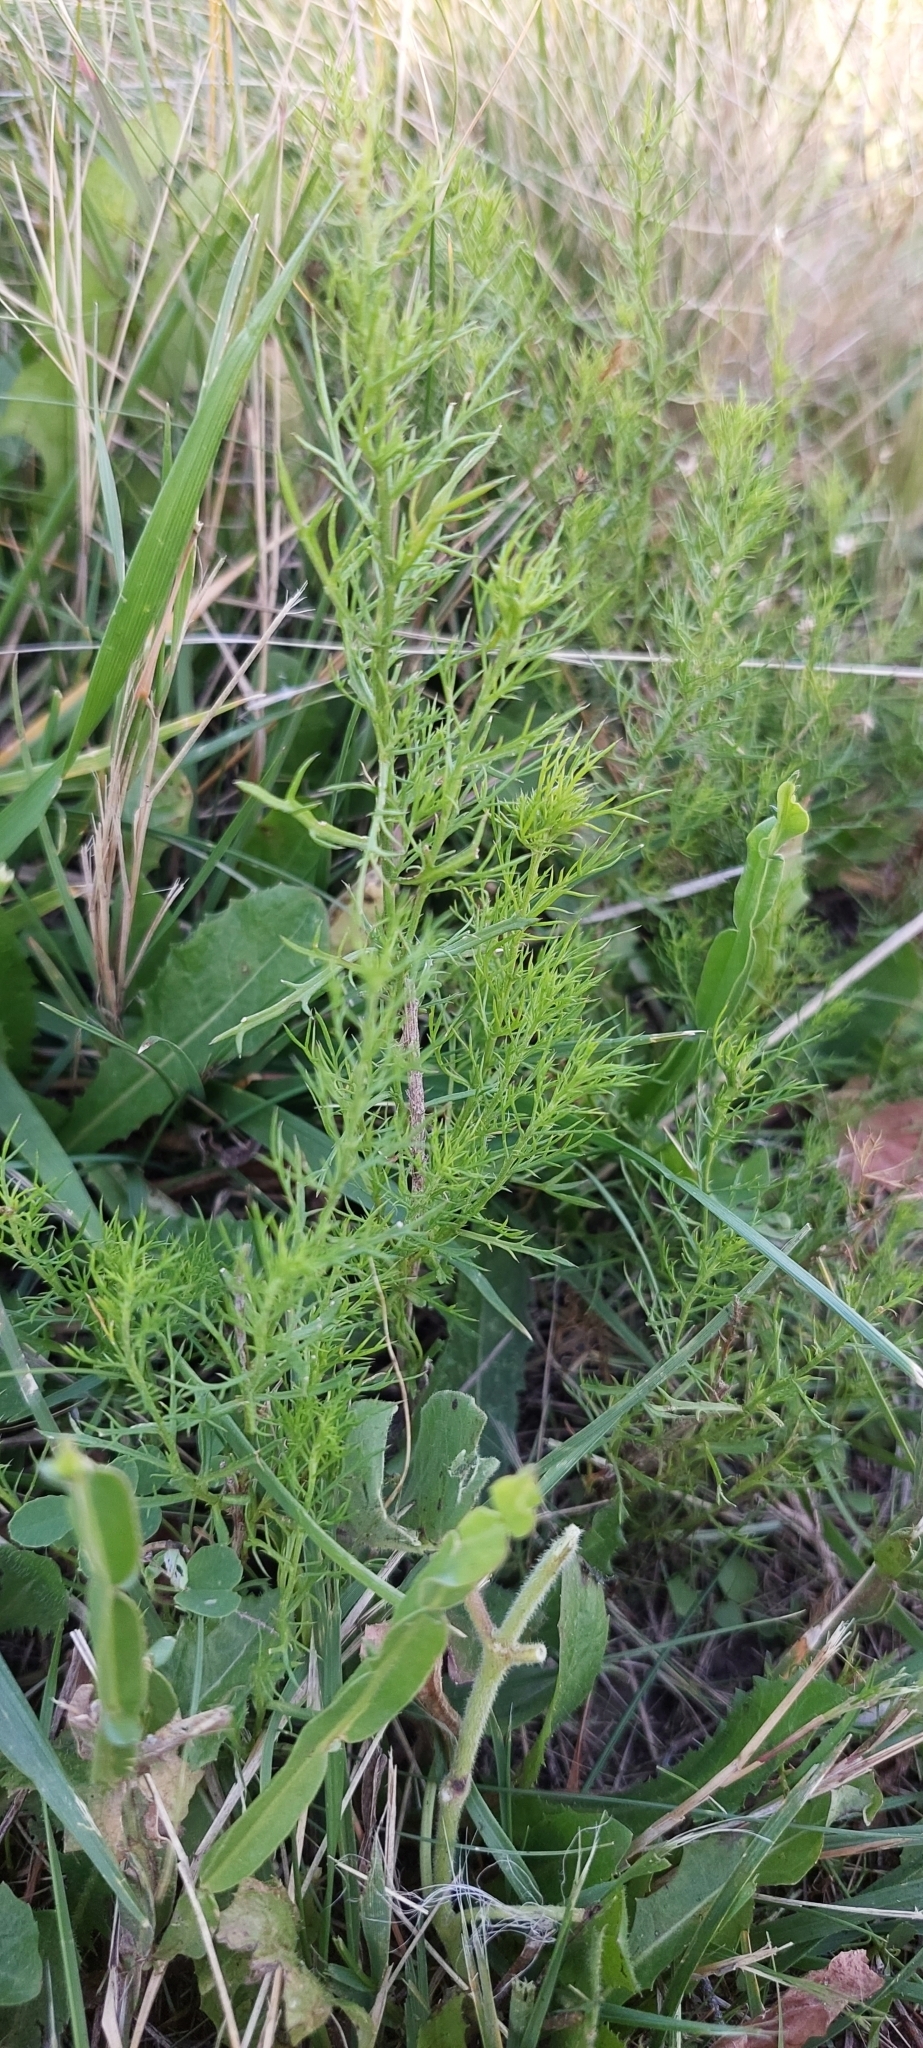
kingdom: Plantae
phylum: Tracheophyta
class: Magnoliopsida
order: Asterales
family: Asteraceae
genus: Baccharis
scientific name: Baccharis ulicina
